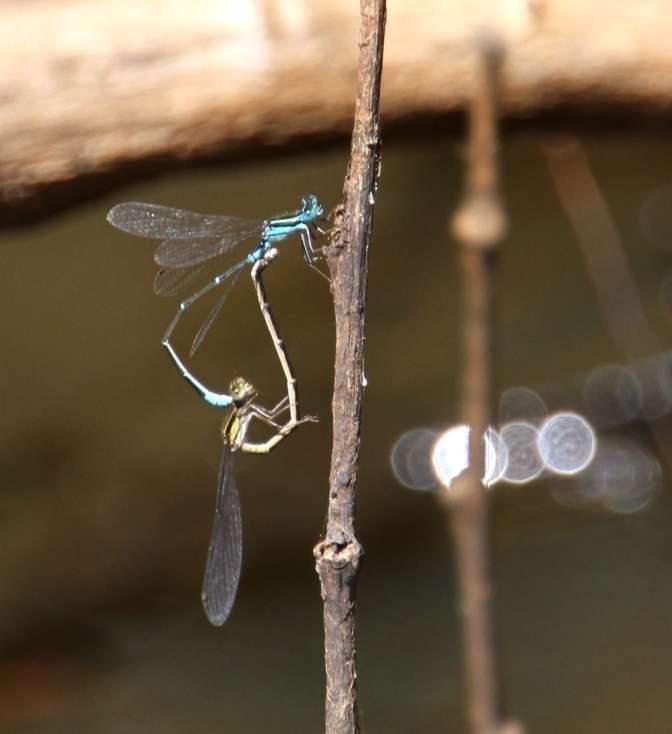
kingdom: Animalia
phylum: Arthropoda
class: Insecta
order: Odonata
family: Coenagrionidae
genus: Austroagrion
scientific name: Austroagrion watsoni
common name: Eastern billabongfly
